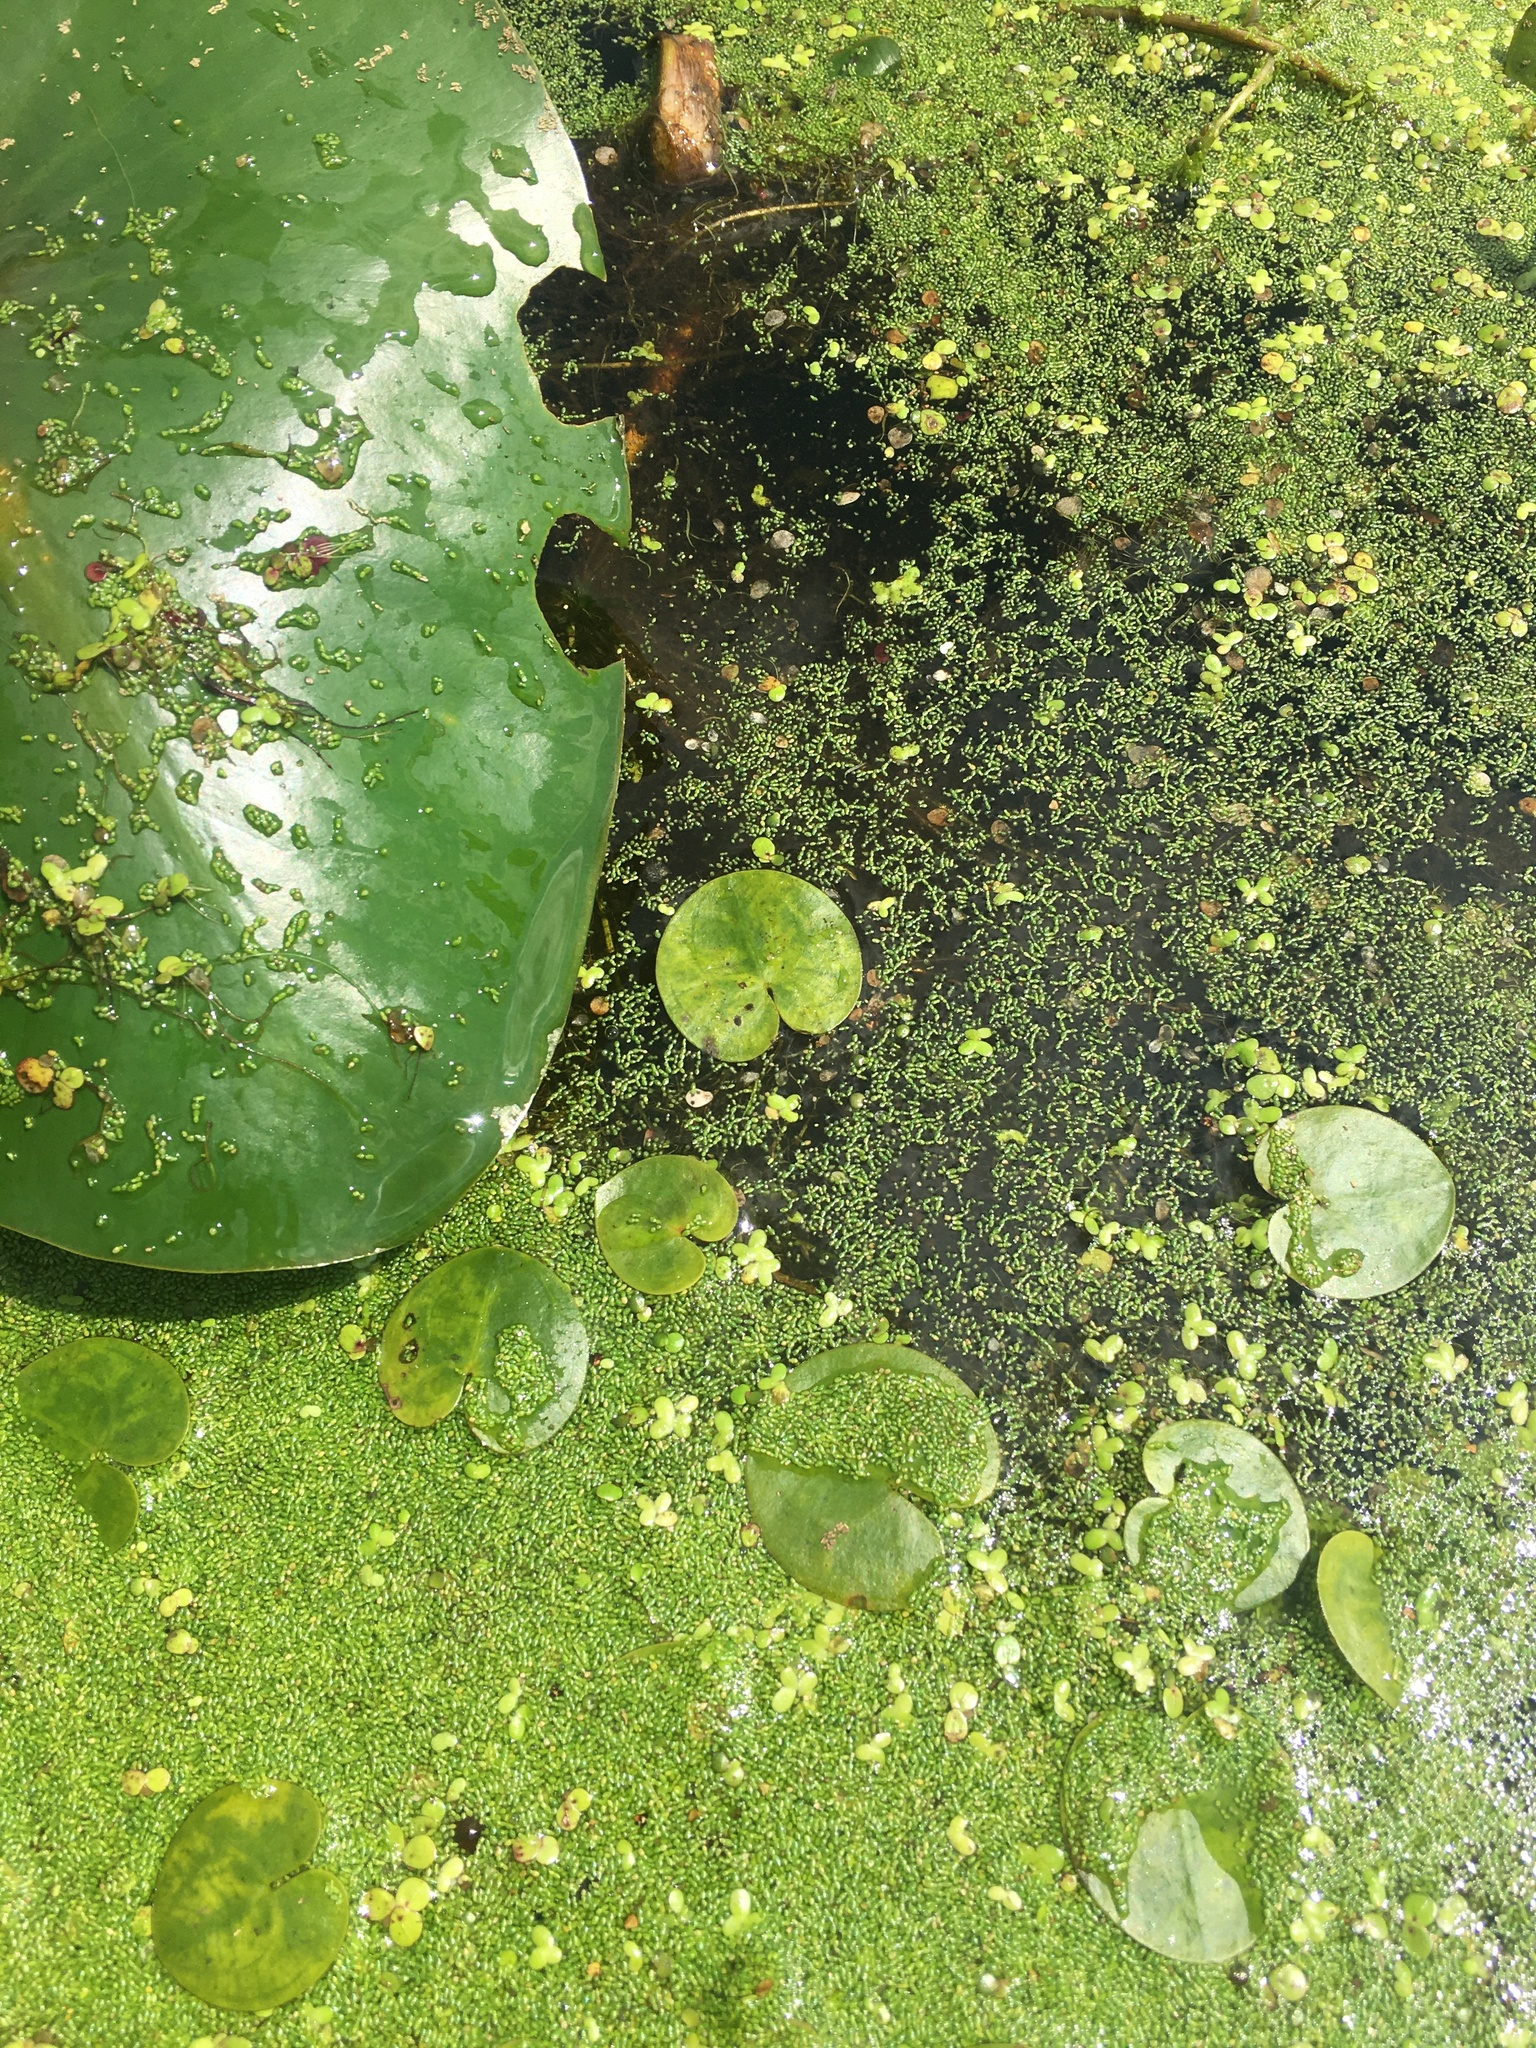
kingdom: Plantae
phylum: Tracheophyta
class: Liliopsida
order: Alismatales
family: Hydrocharitaceae
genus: Hydrocharis
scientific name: Hydrocharis morsus-ranae
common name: Frogbit
